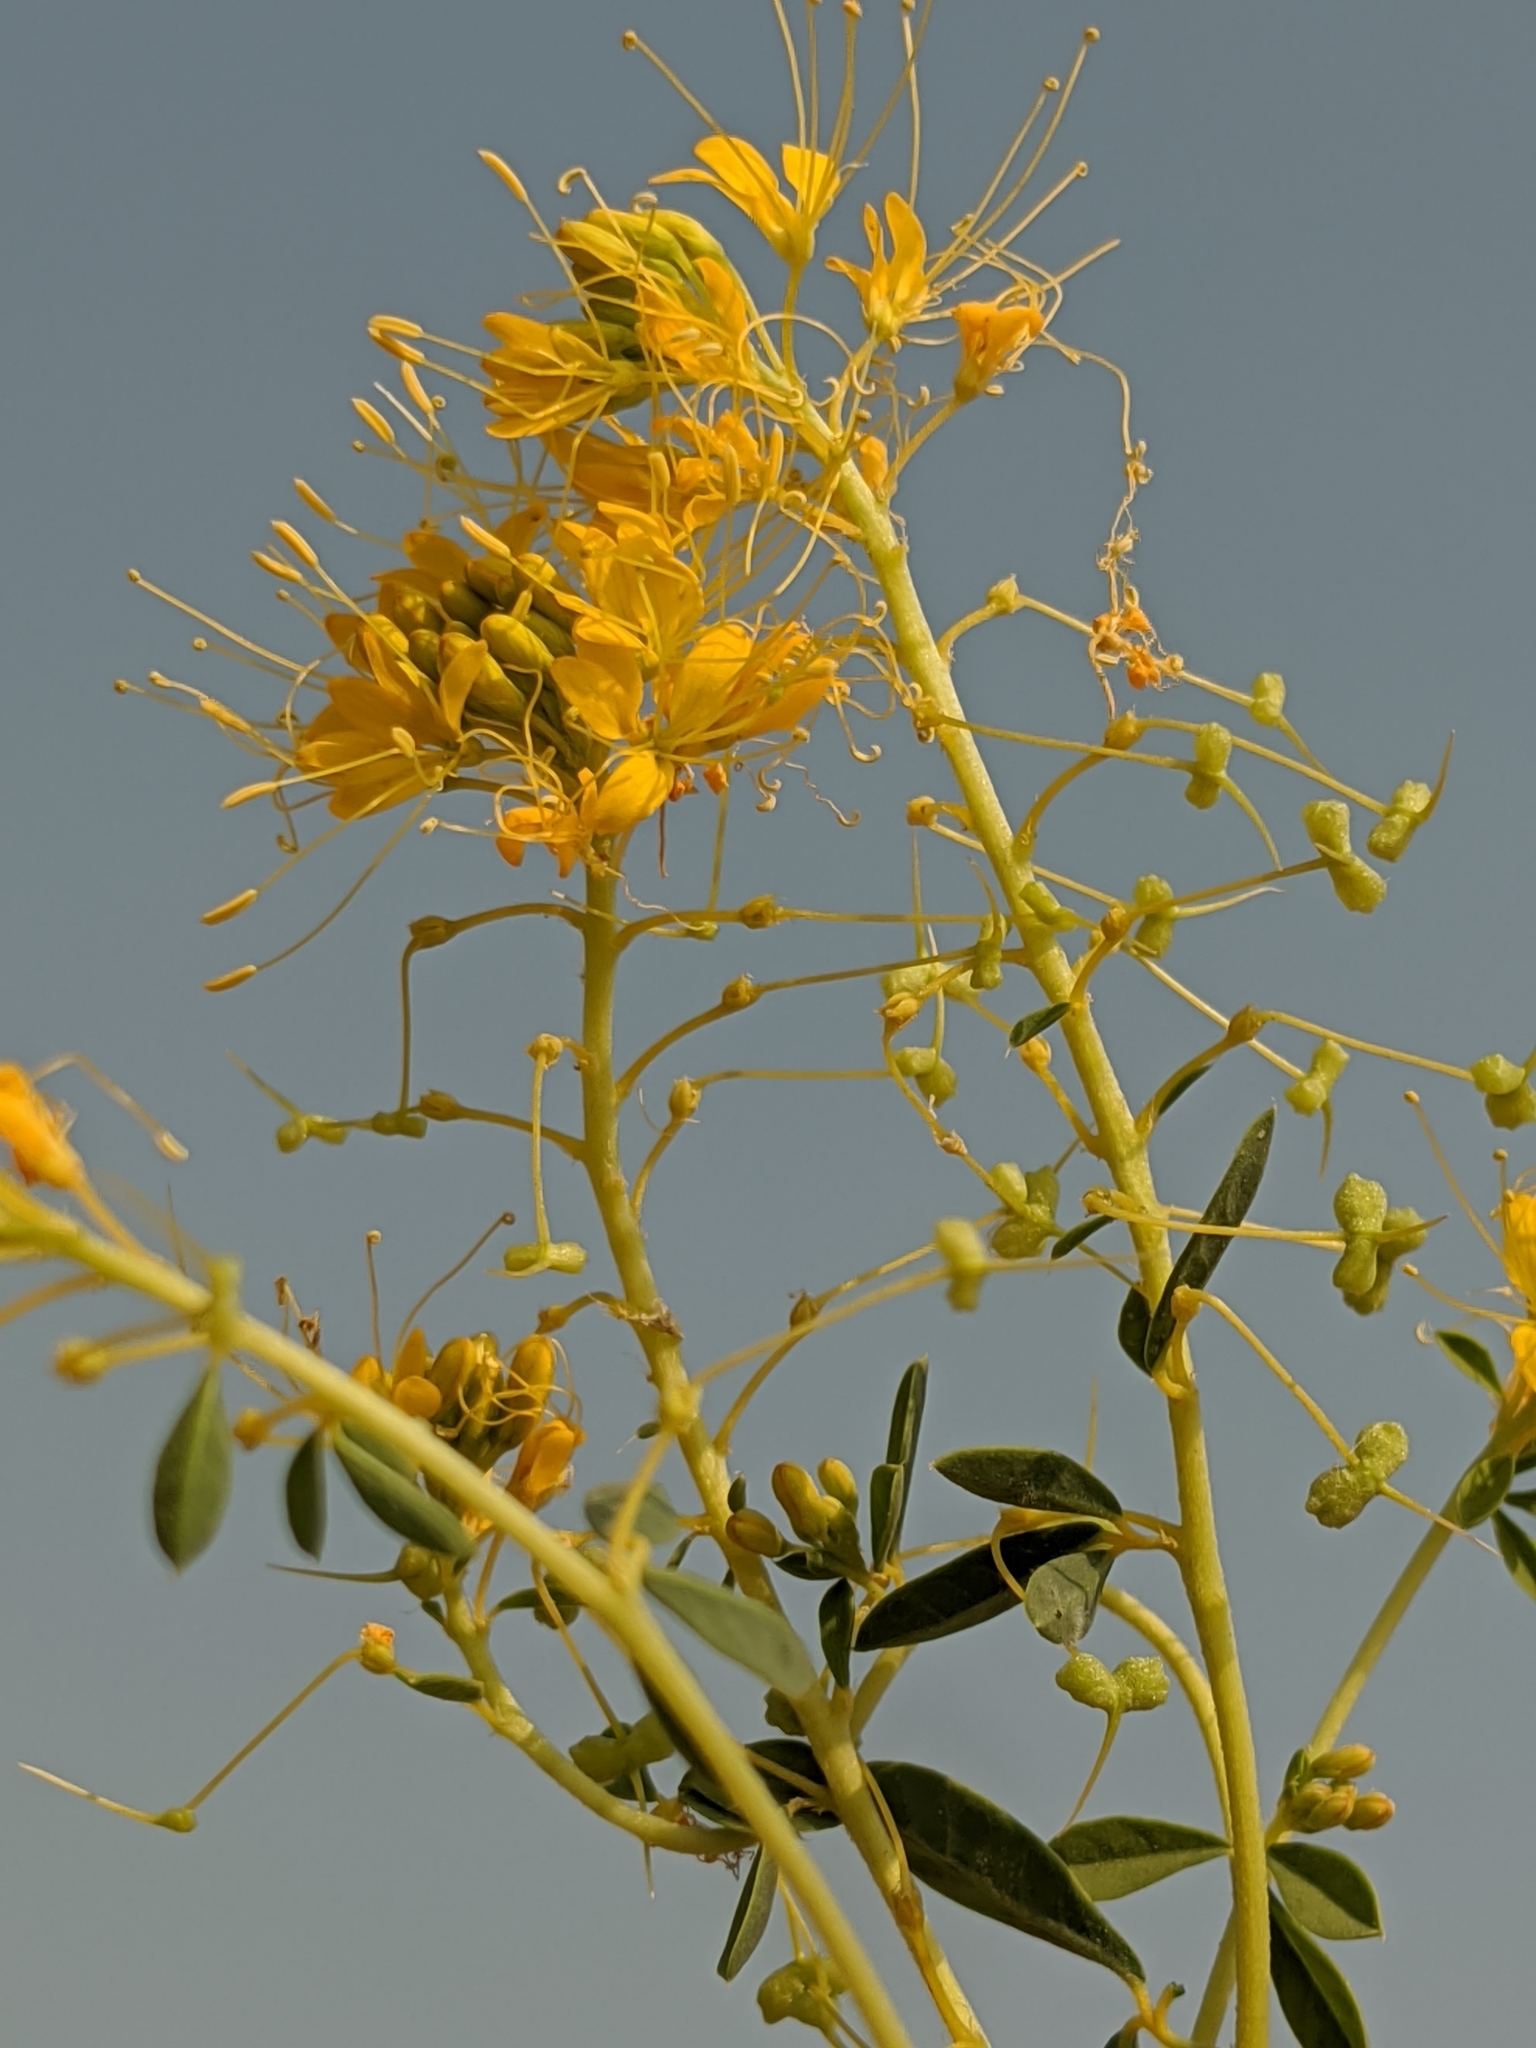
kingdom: Plantae
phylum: Tracheophyta
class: Magnoliopsida
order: Brassicales
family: Cleomaceae
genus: Cleomella
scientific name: Cleomella refracta
